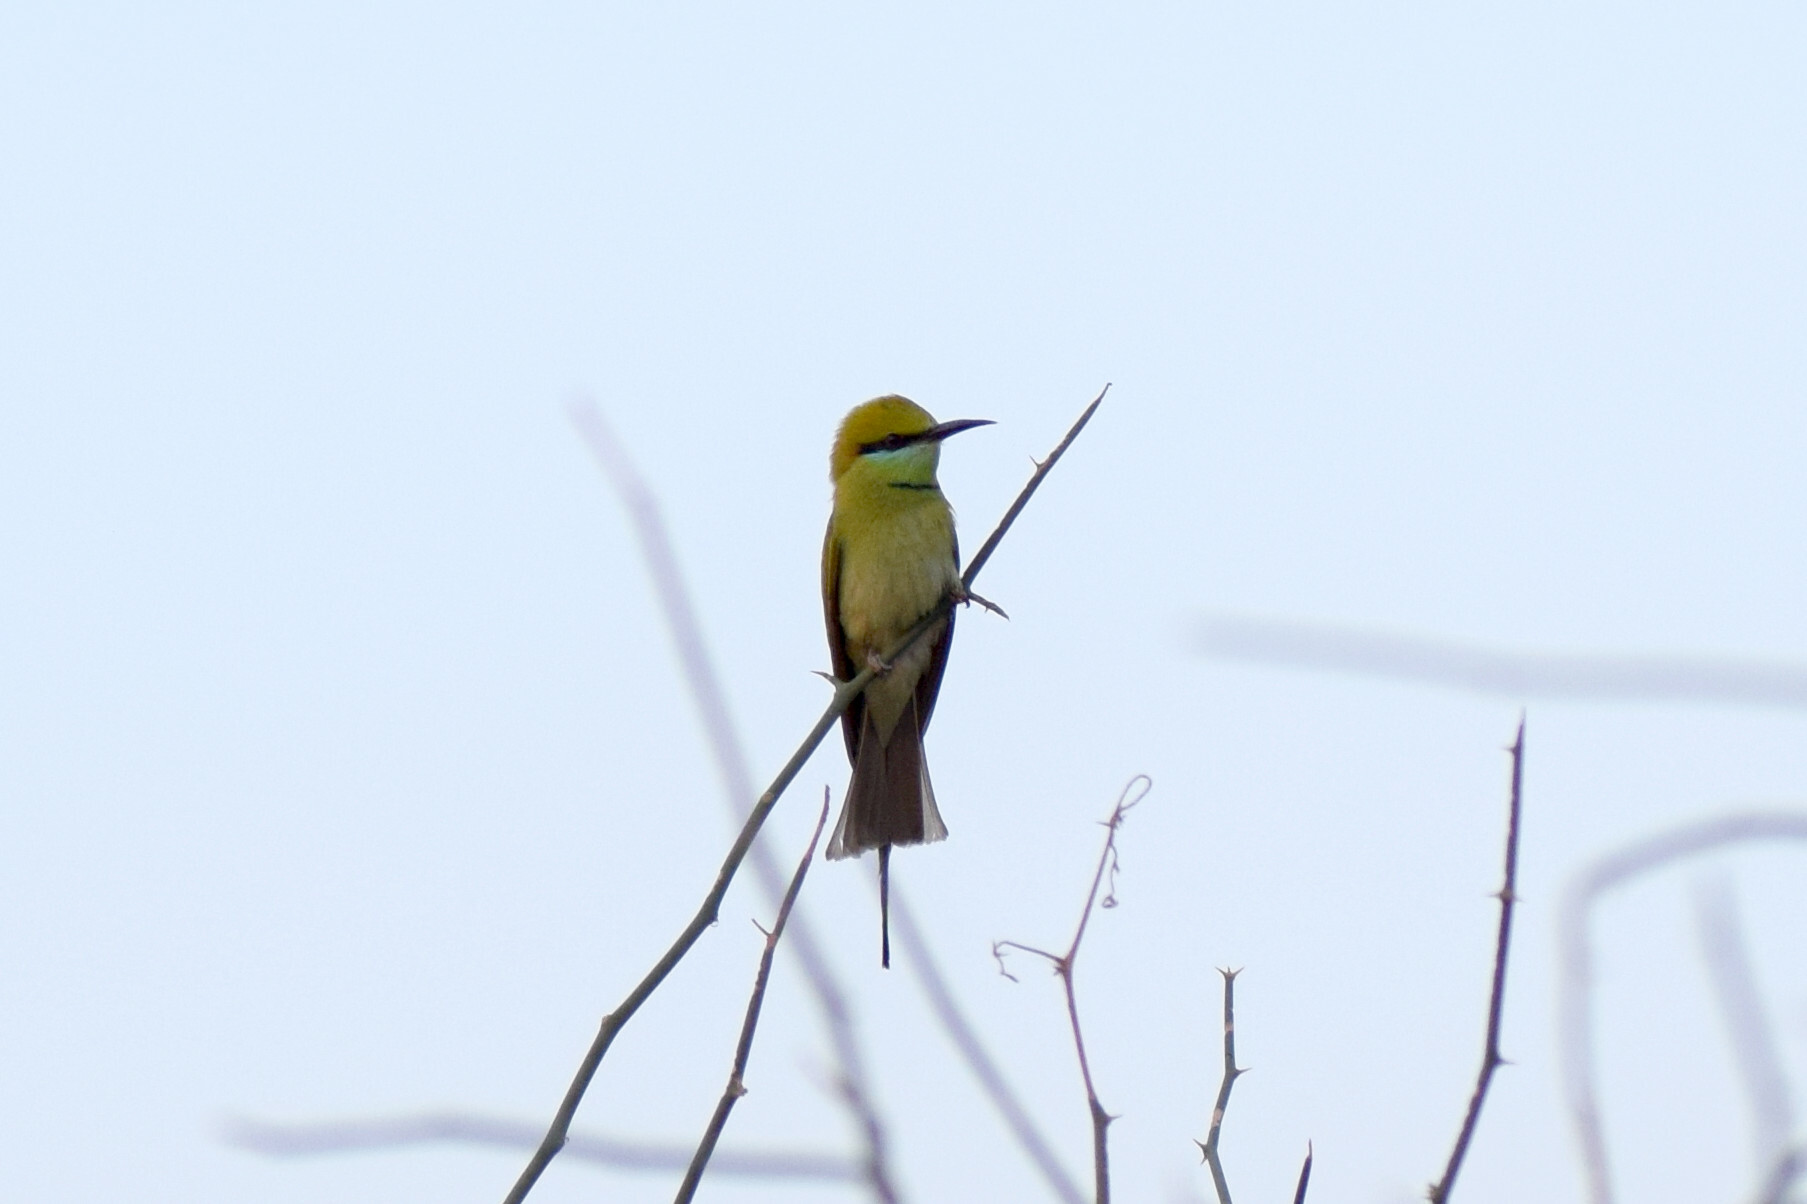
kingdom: Animalia
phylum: Chordata
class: Aves
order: Coraciiformes
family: Meropidae
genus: Merops
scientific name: Merops orientalis
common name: Green bee-eater
